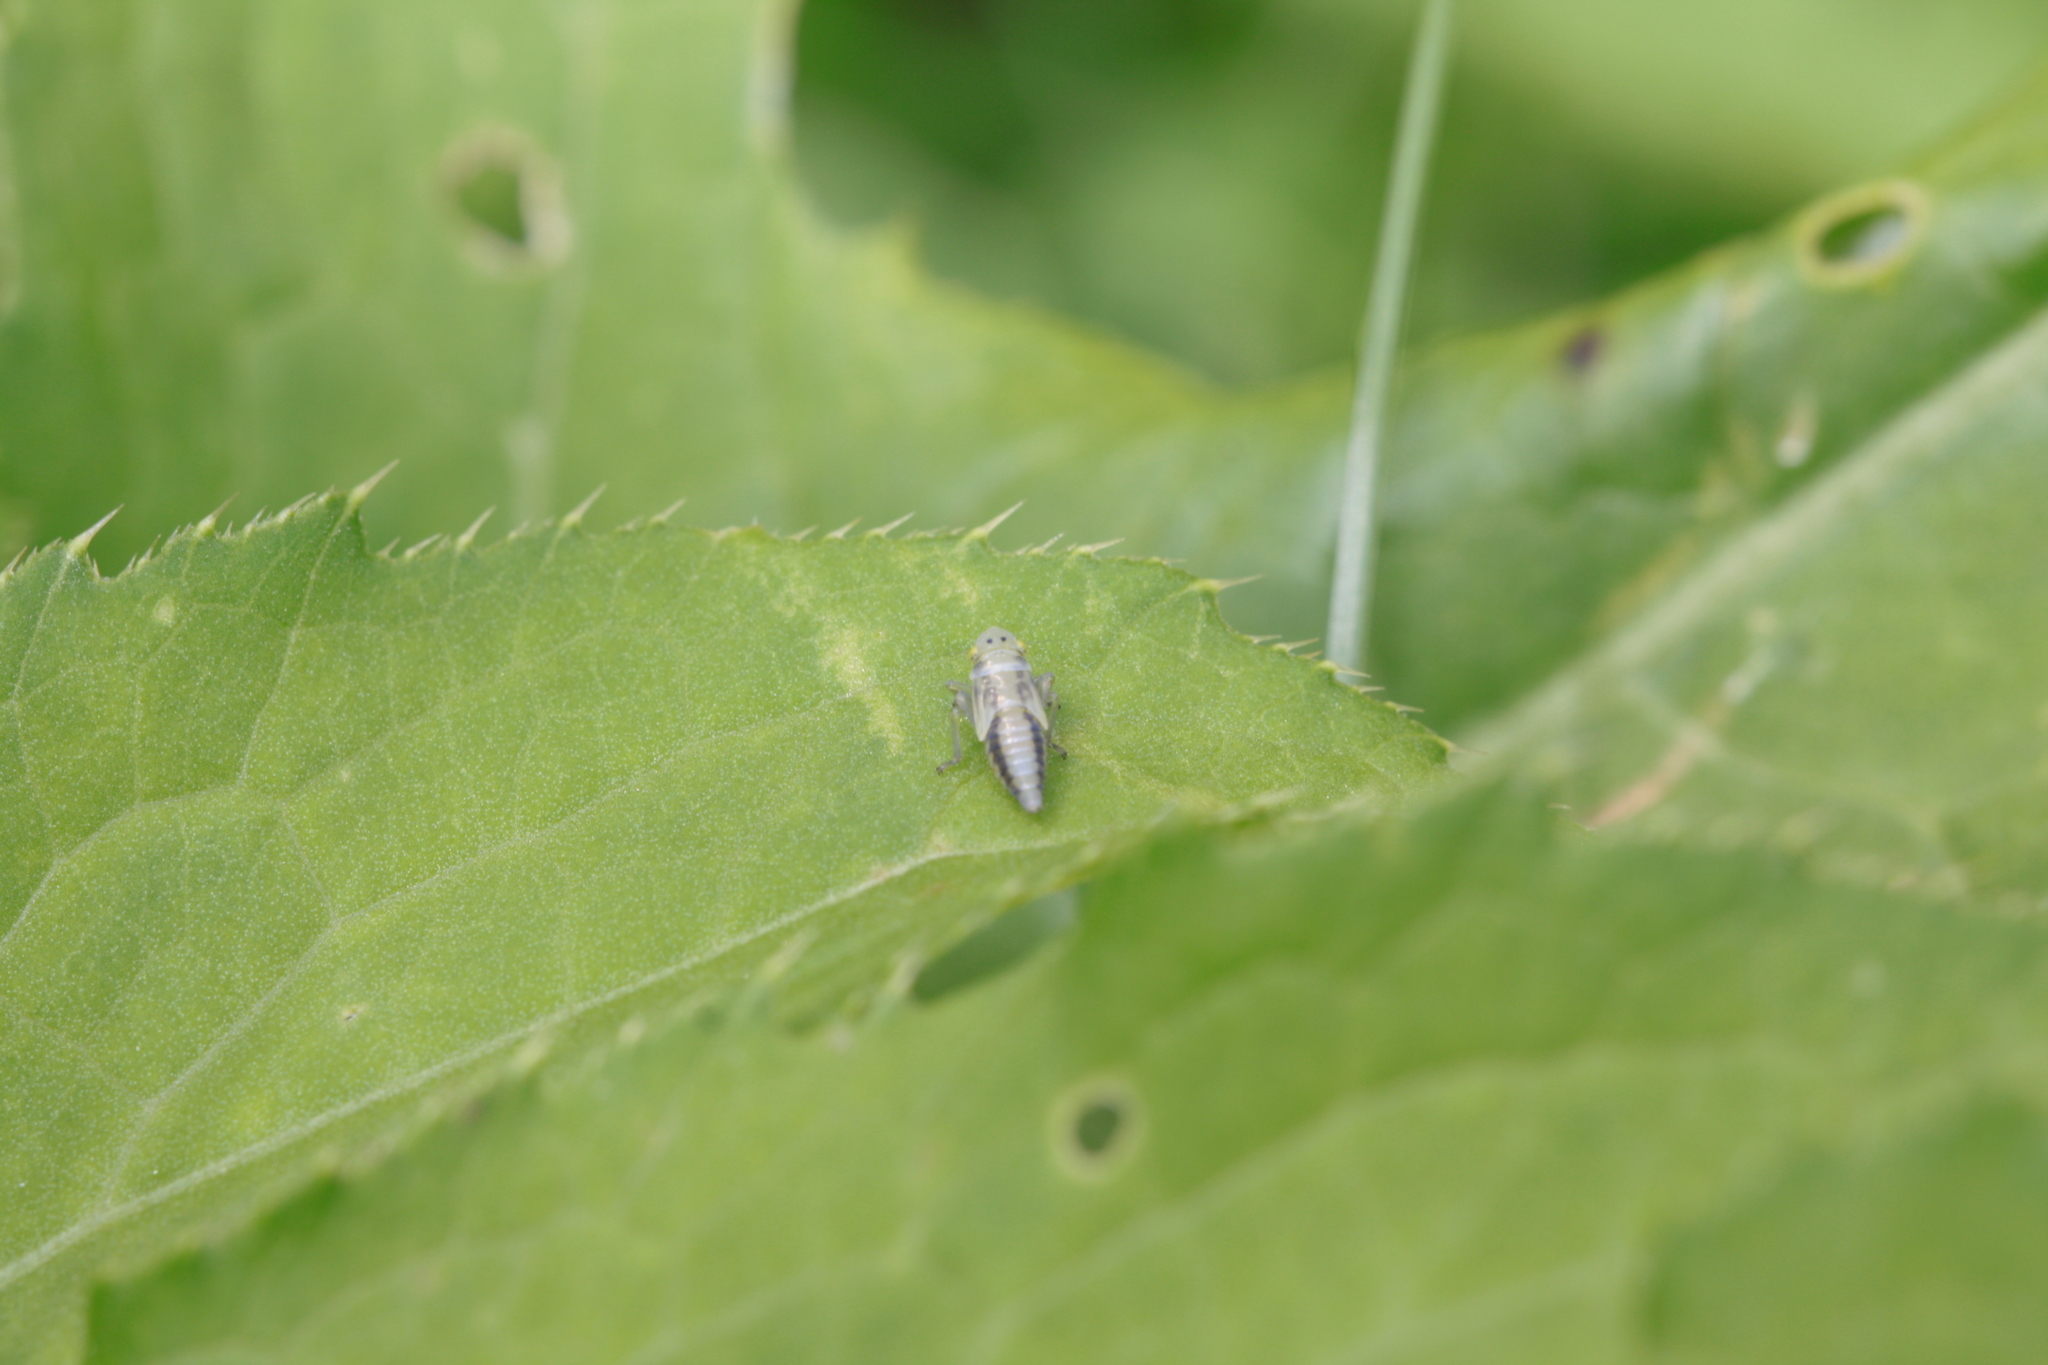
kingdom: Animalia
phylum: Arthropoda
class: Insecta
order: Hemiptera
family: Cicadellidae
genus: Evacanthus
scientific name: Evacanthus interruptus
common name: Leafhopper
